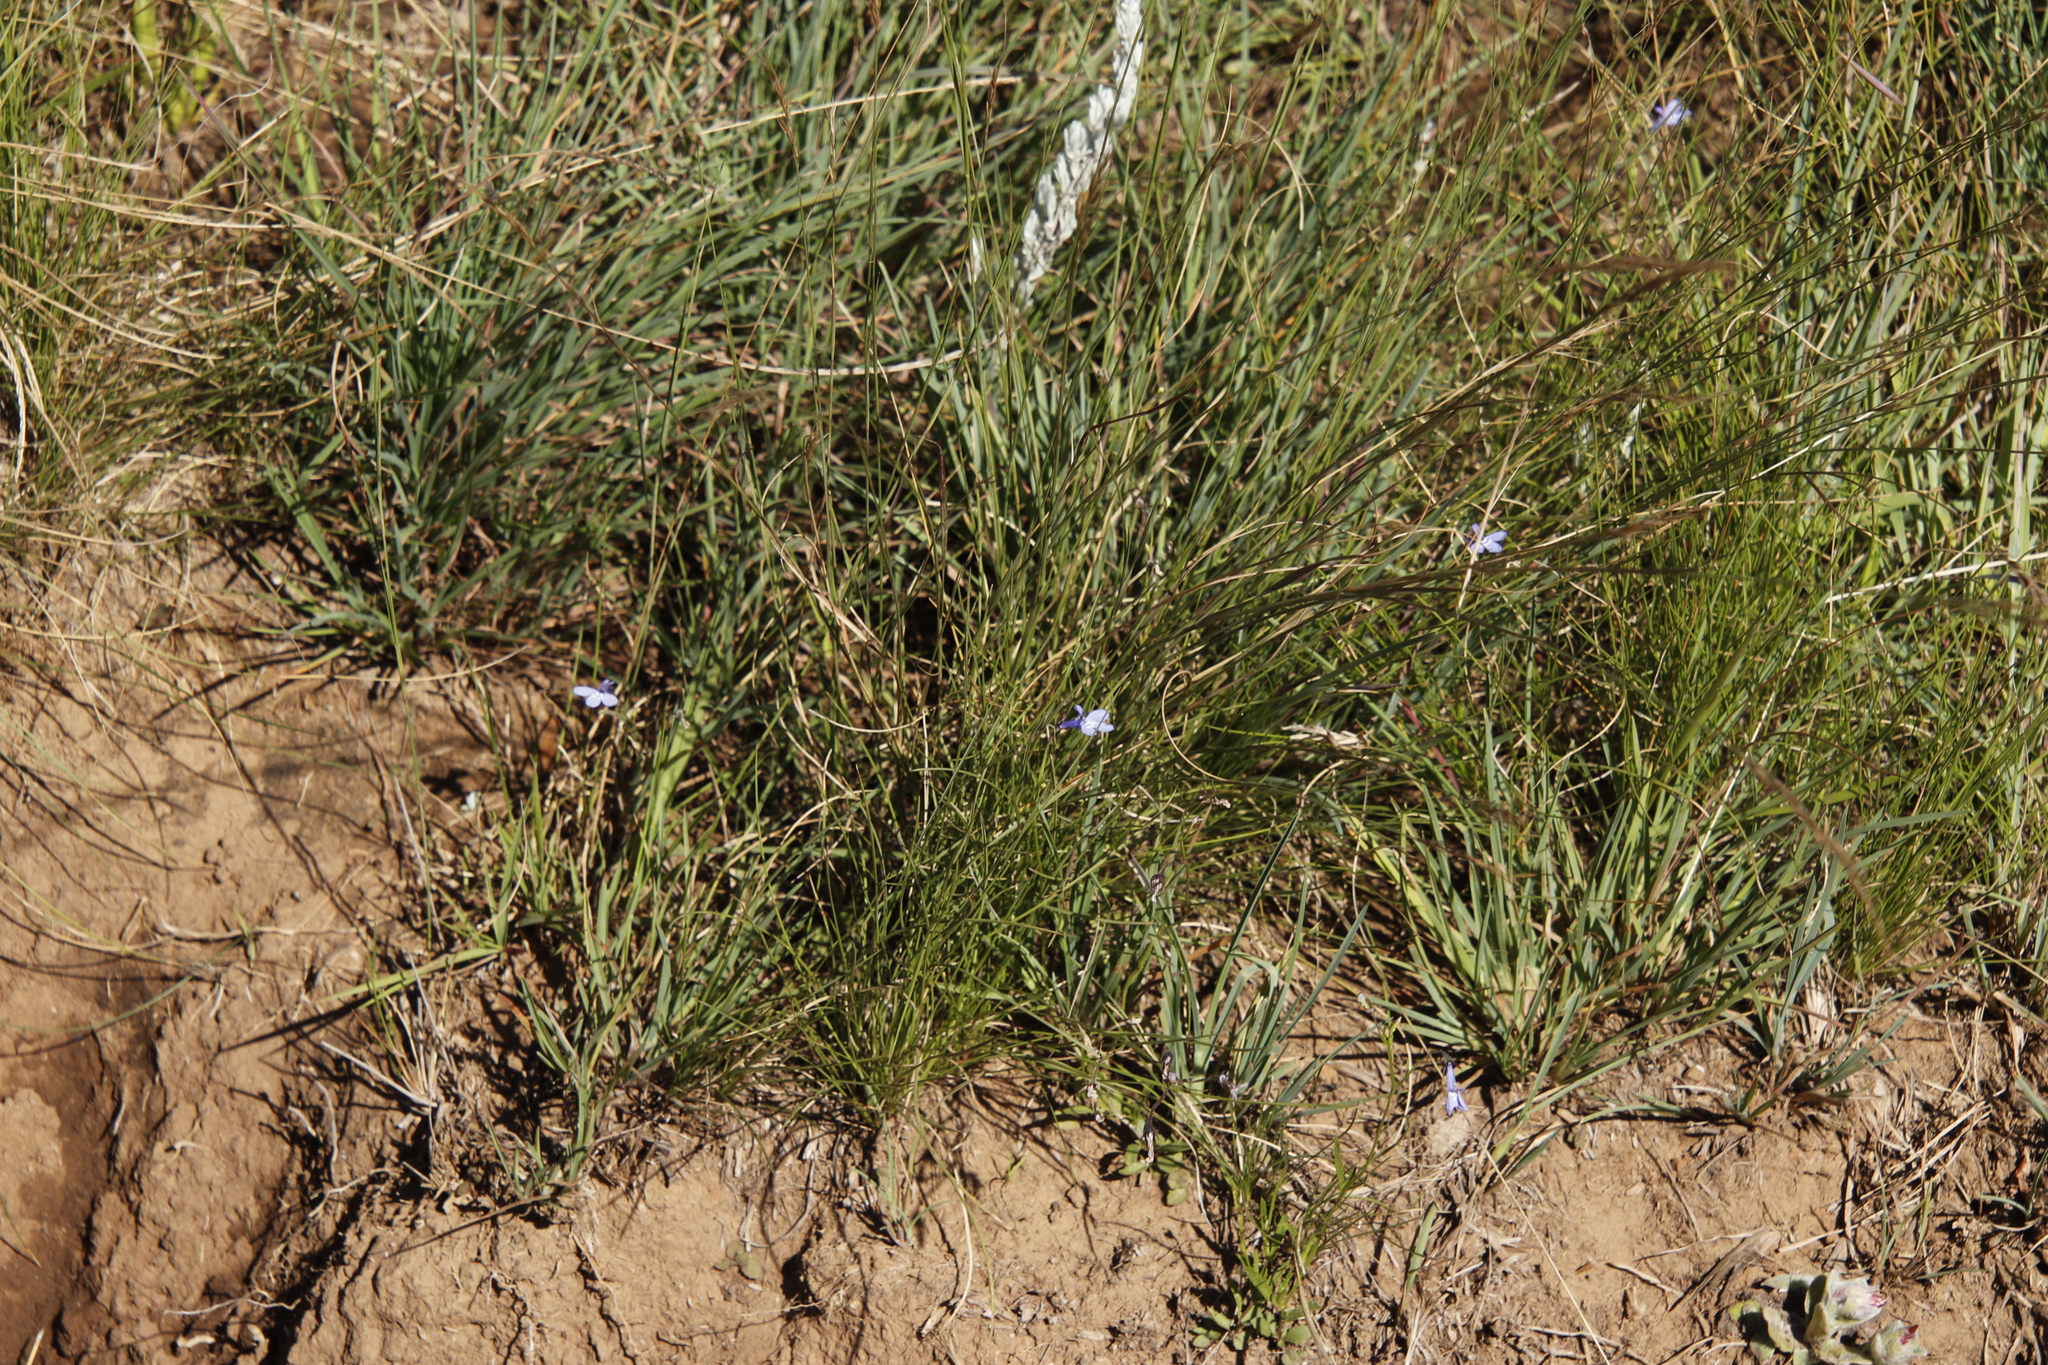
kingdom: Plantae
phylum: Tracheophyta
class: Magnoliopsida
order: Asterales
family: Campanulaceae
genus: Lobelia
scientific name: Lobelia flaccida
